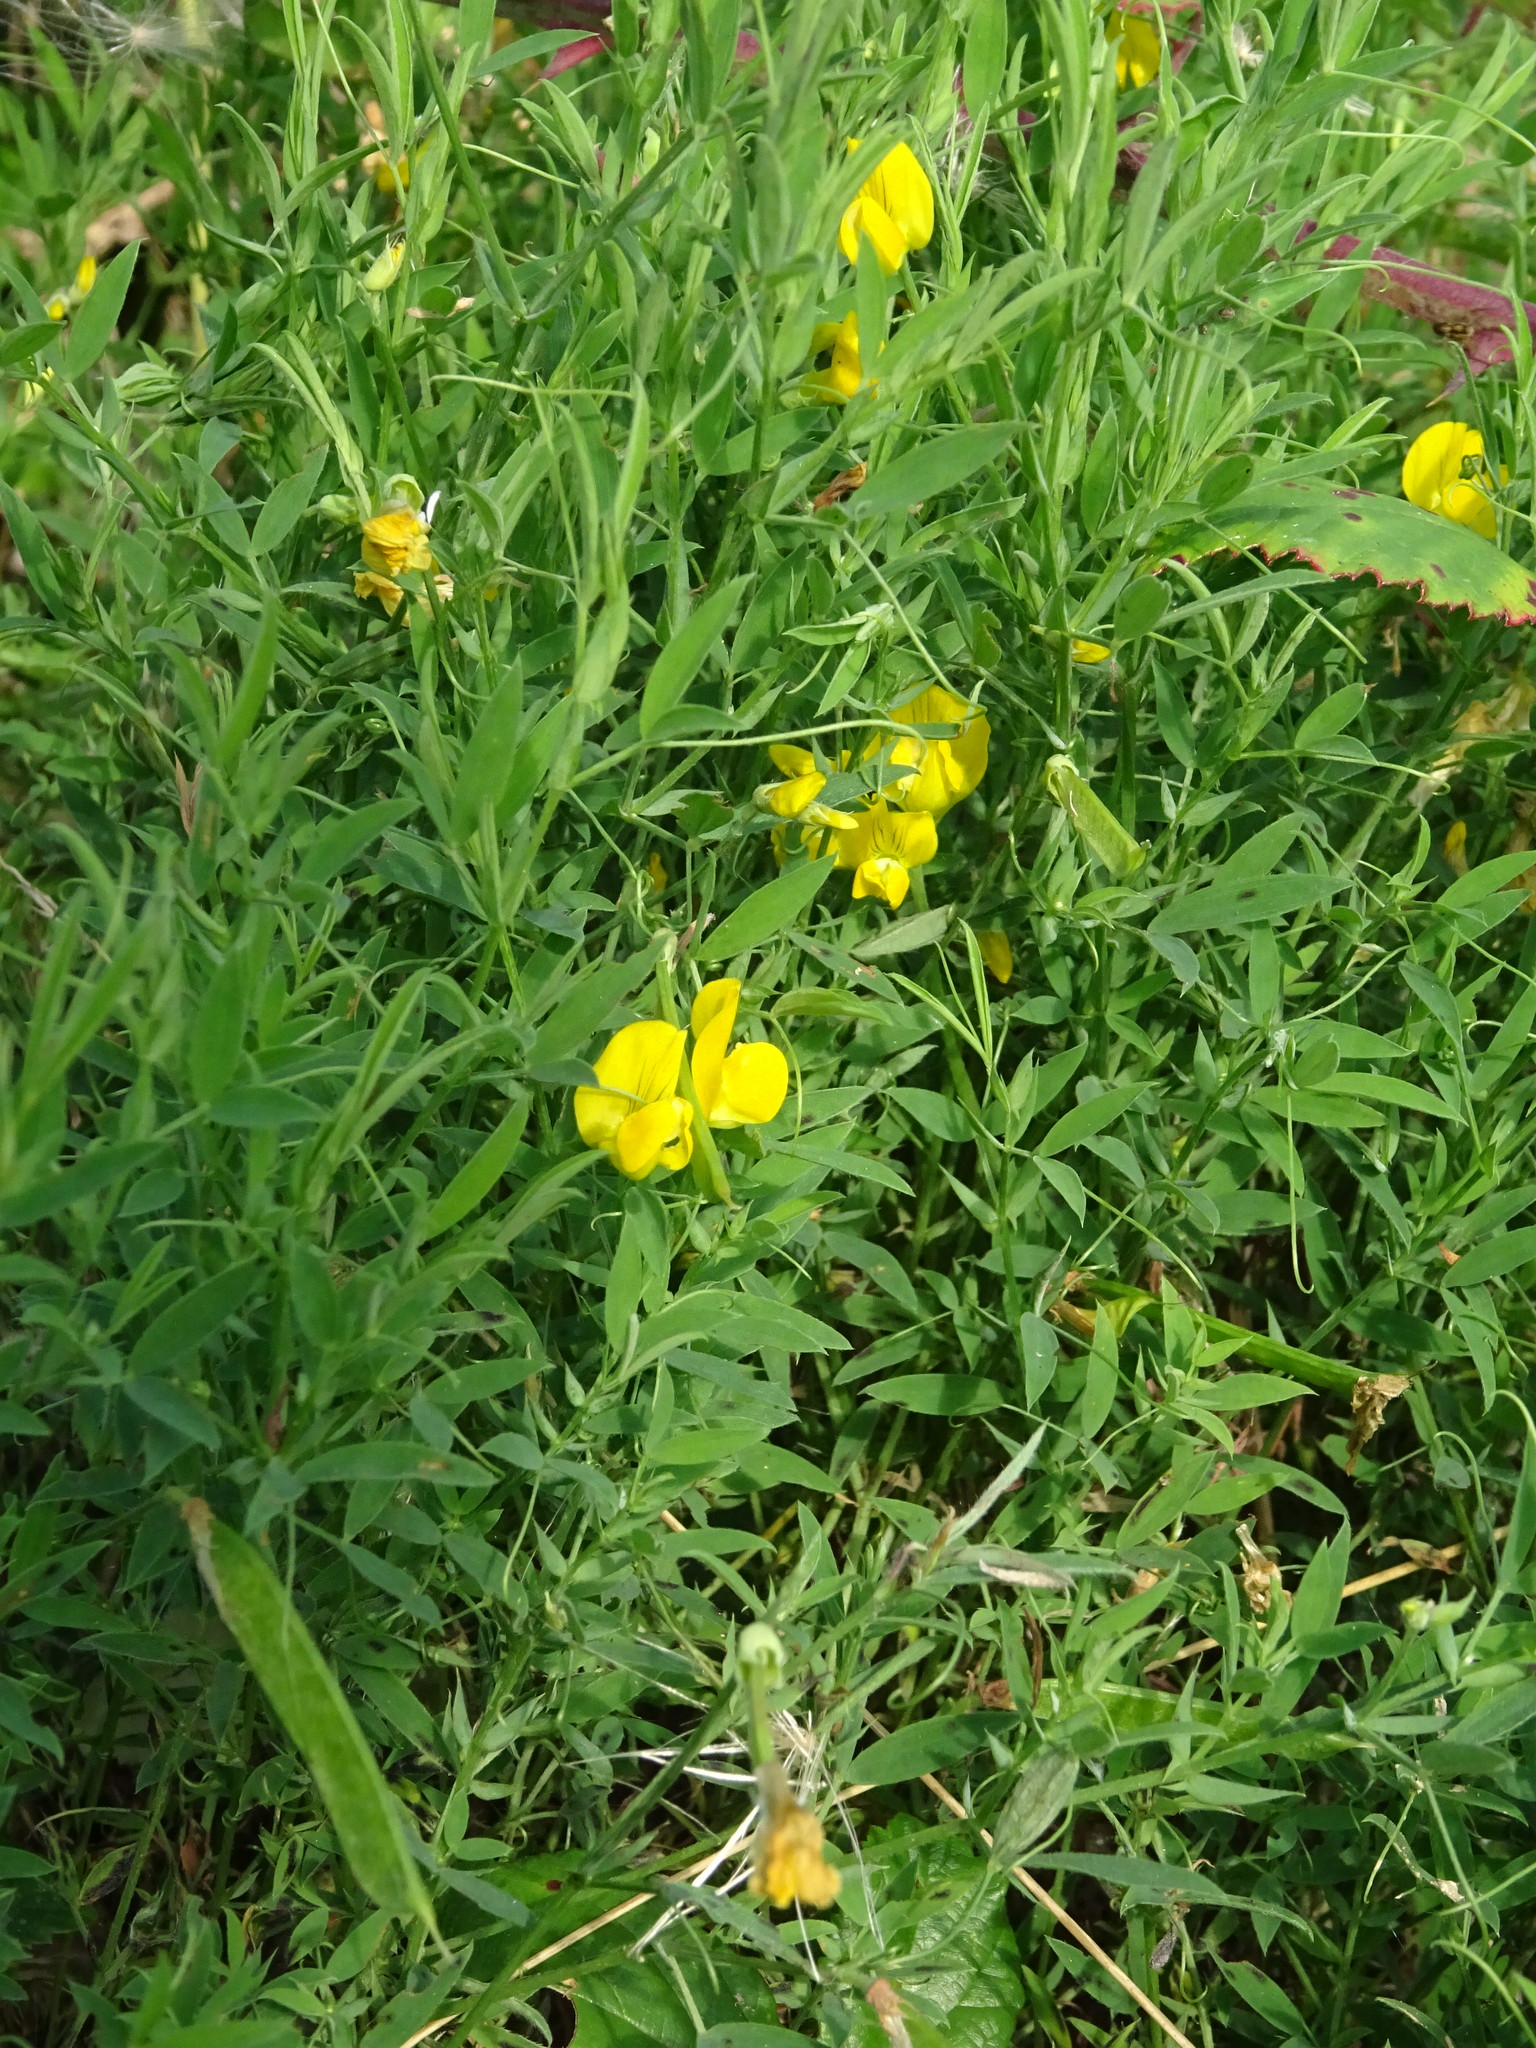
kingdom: Plantae
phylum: Tracheophyta
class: Magnoliopsida
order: Fabales
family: Fabaceae
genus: Lathyrus
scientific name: Lathyrus pratensis
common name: Meadow vetchling
